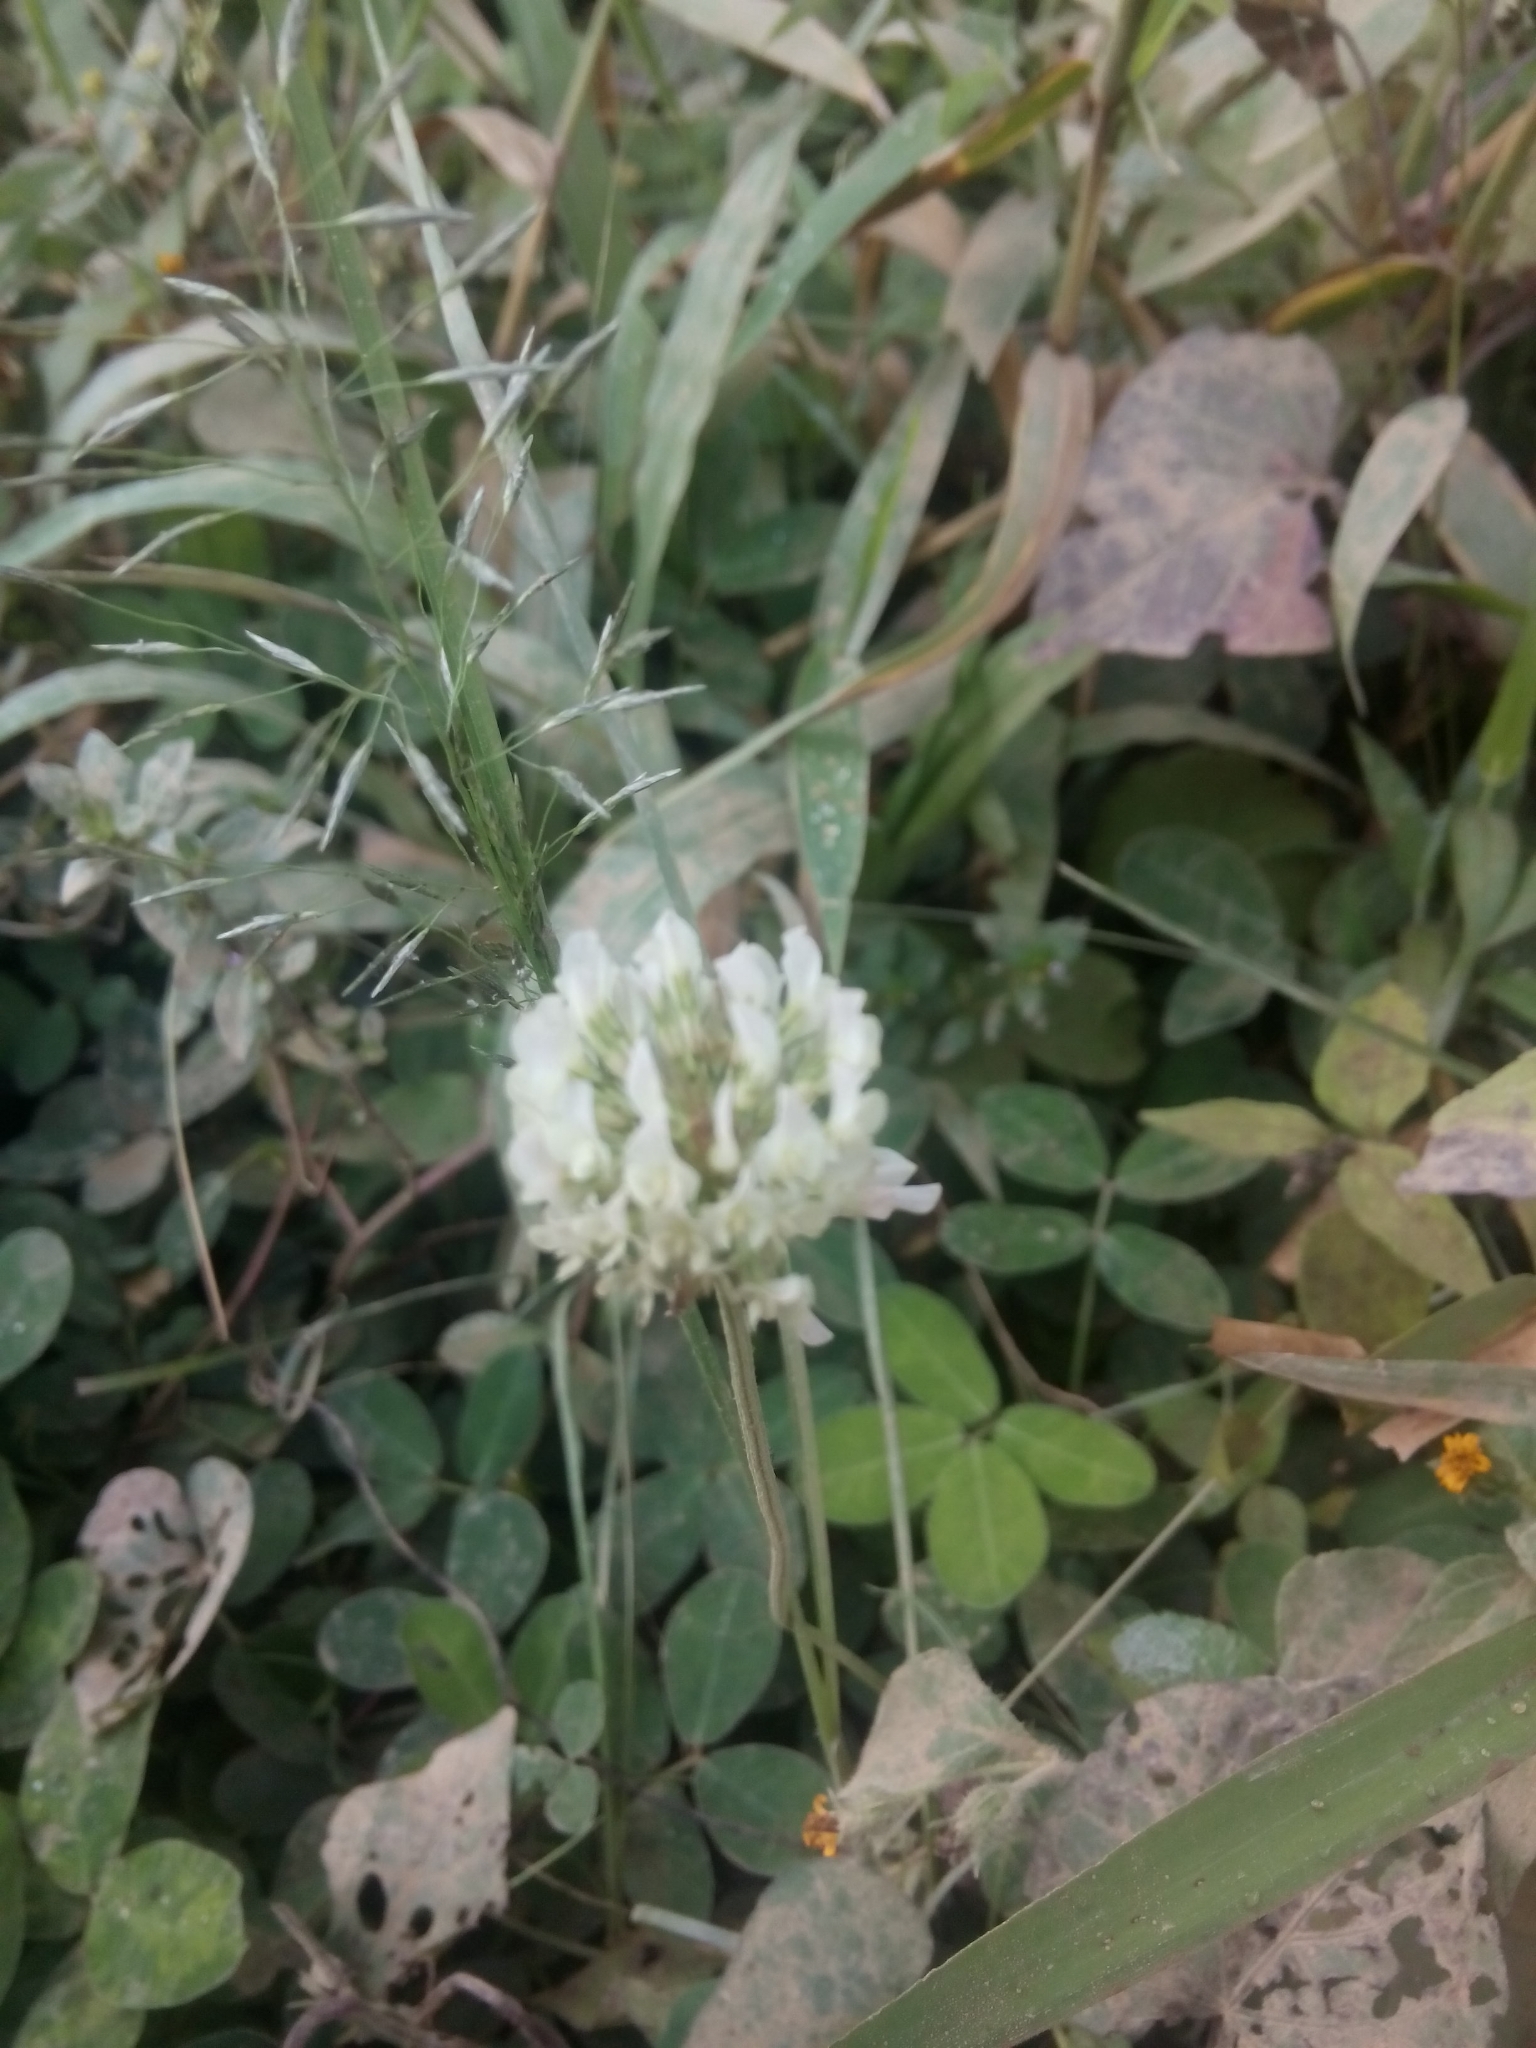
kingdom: Plantae
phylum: Tracheophyta
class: Magnoliopsida
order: Fabales
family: Fabaceae
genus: Trifolium
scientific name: Trifolium repens
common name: White clover
